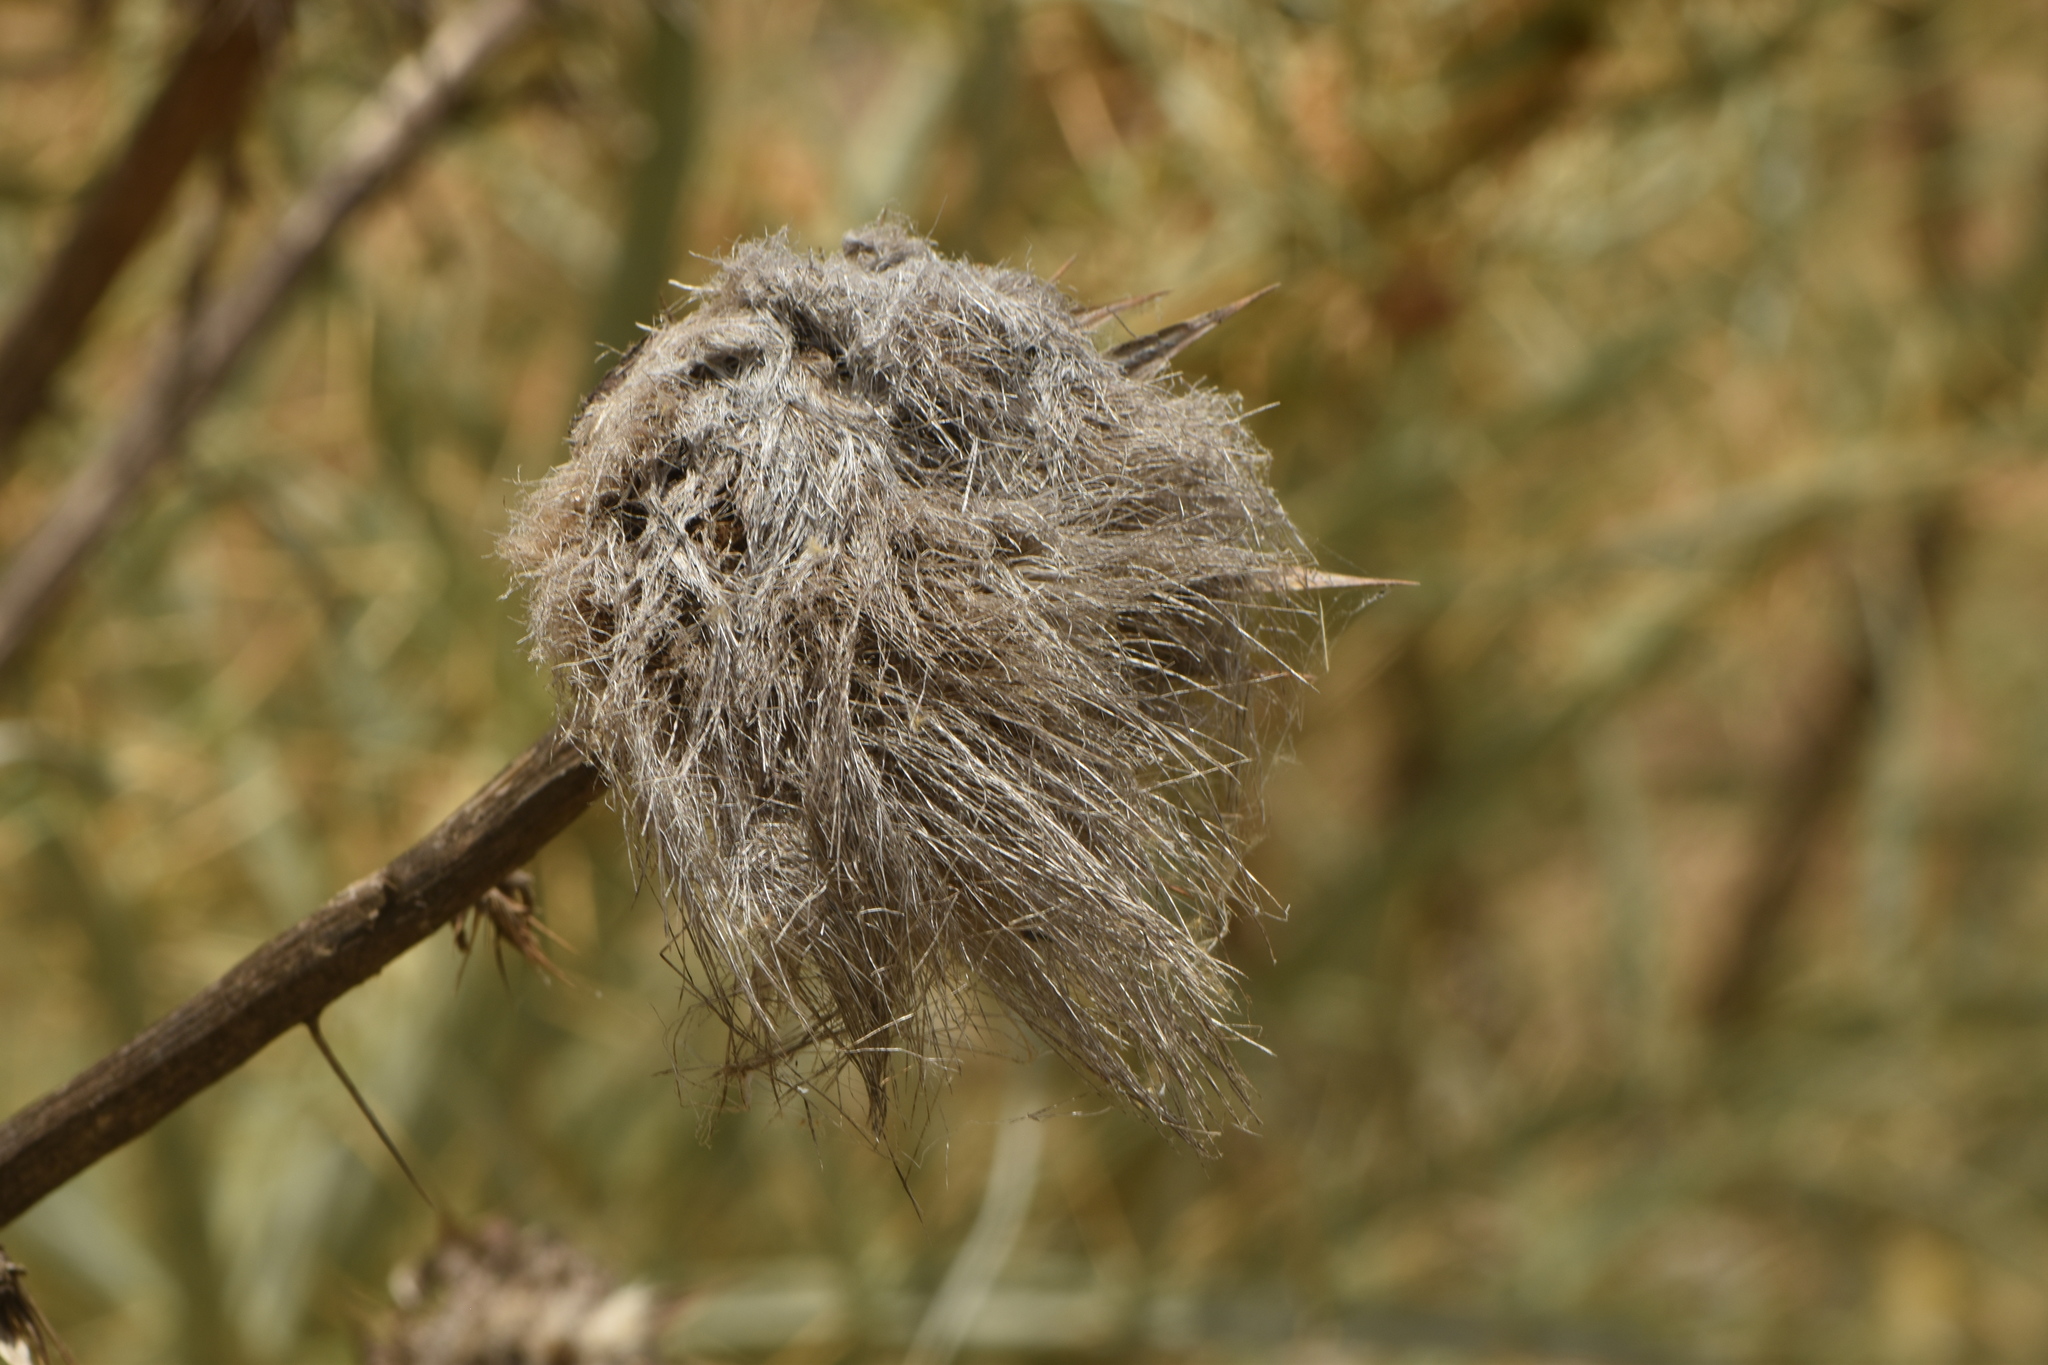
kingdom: Plantae
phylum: Tracheophyta
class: Magnoliopsida
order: Asterales
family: Asteraceae
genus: Cynara
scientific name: Cynara cardunculus
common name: Globe artichoke
